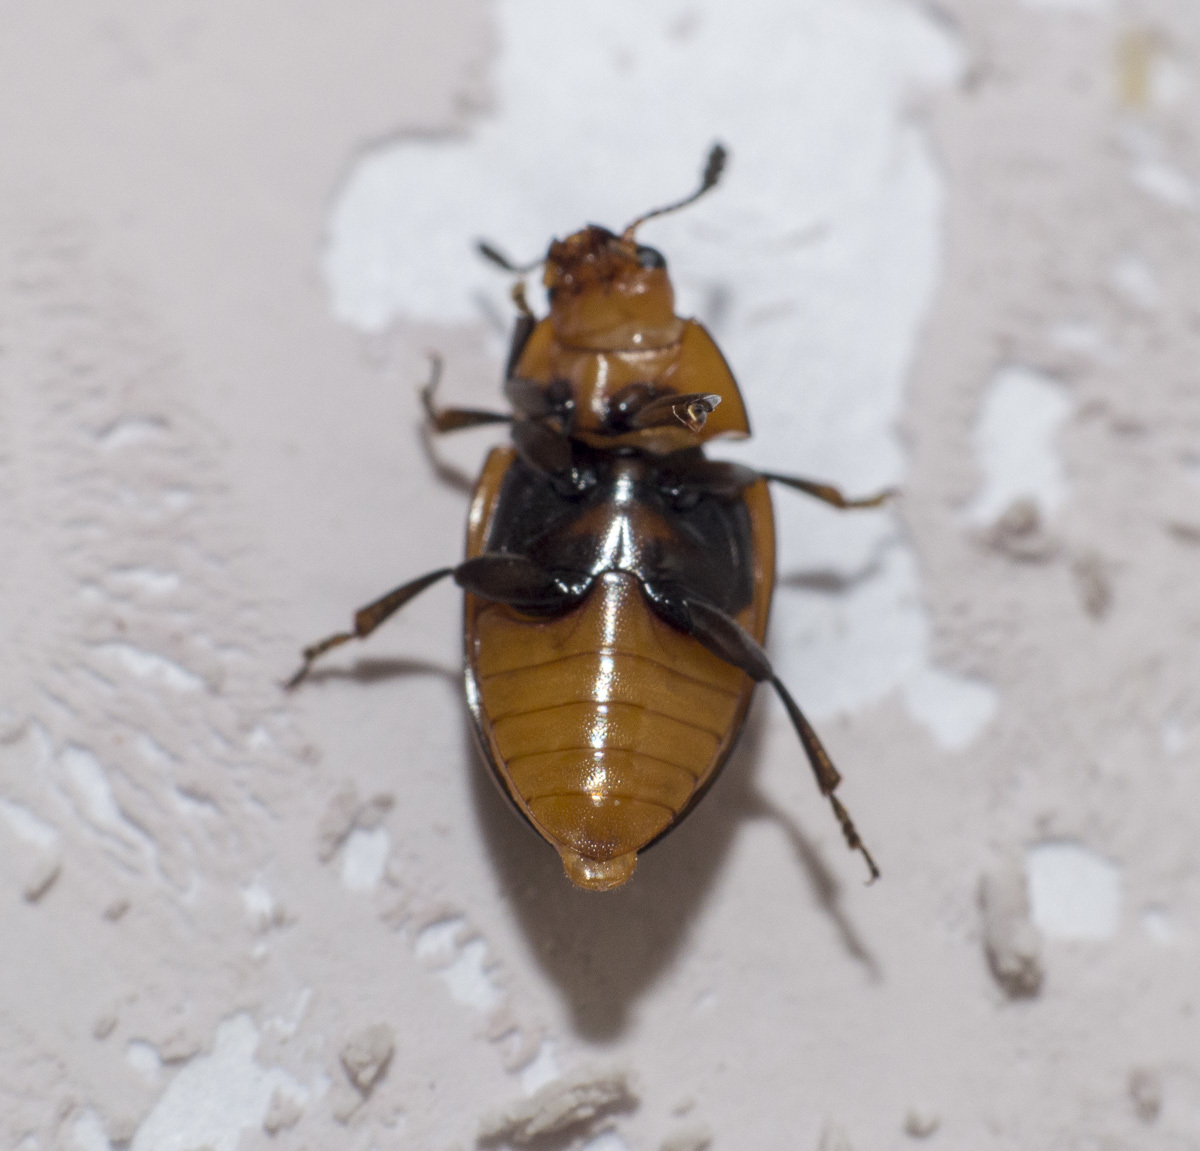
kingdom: Animalia
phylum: Arthropoda
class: Insecta
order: Coleoptera
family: Erotylidae
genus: Mycotretus
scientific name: Mycotretus ornatus
